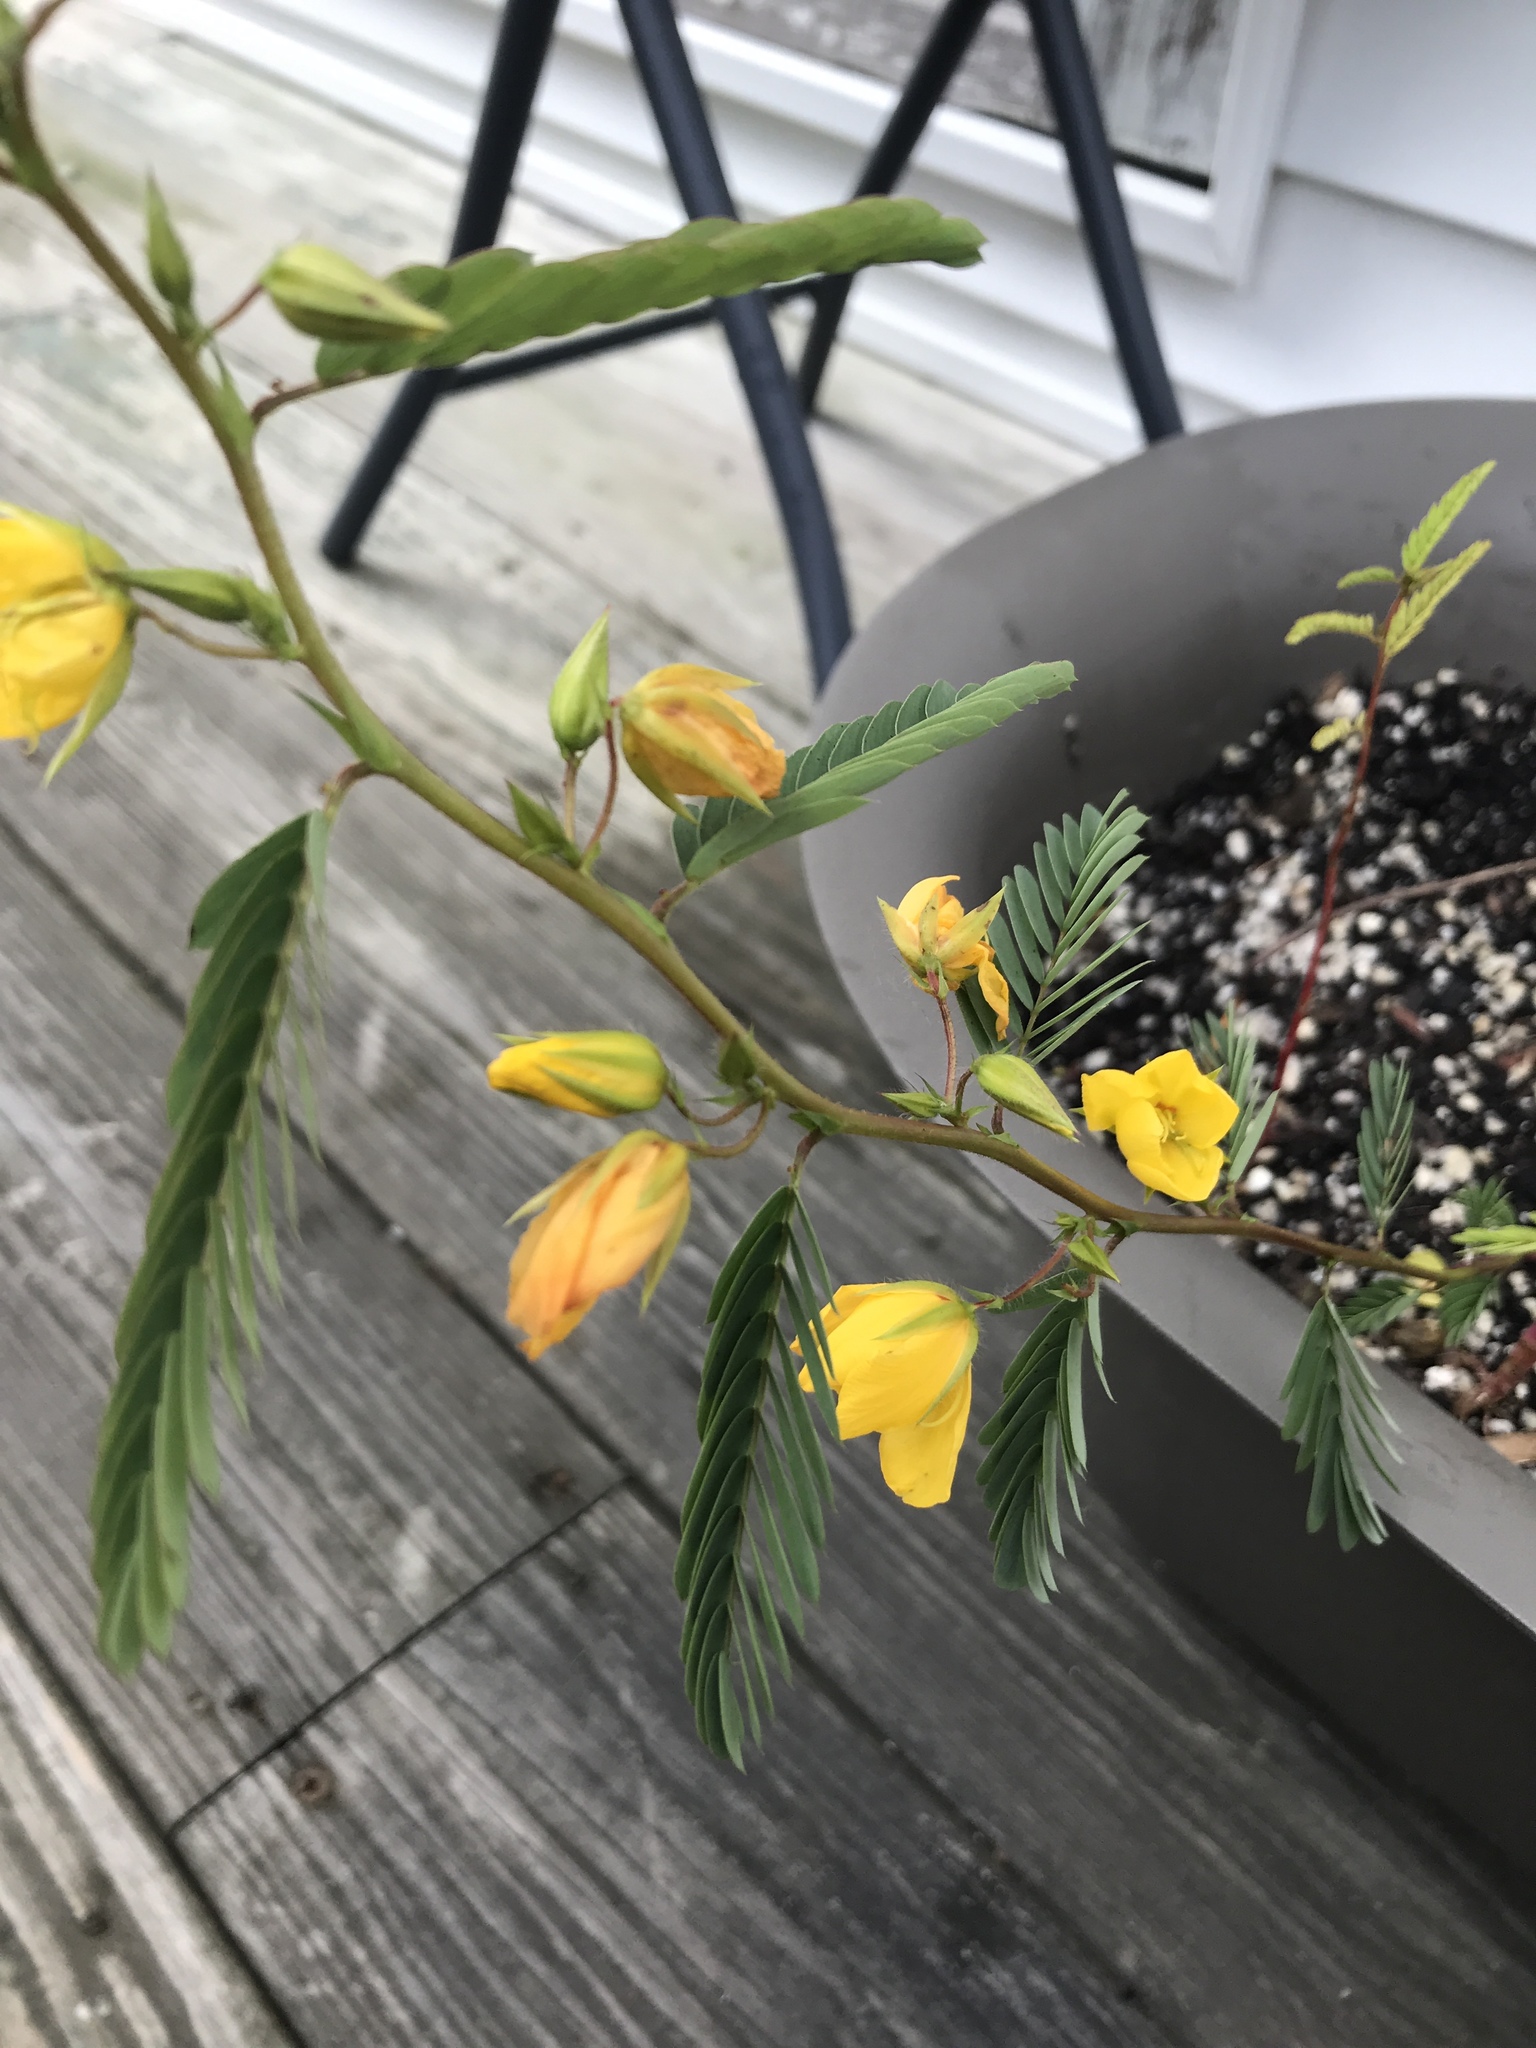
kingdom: Plantae
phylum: Tracheophyta
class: Magnoliopsida
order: Fabales
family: Fabaceae
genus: Chamaecrista
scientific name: Chamaecrista fasciculata
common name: Golden cassia
